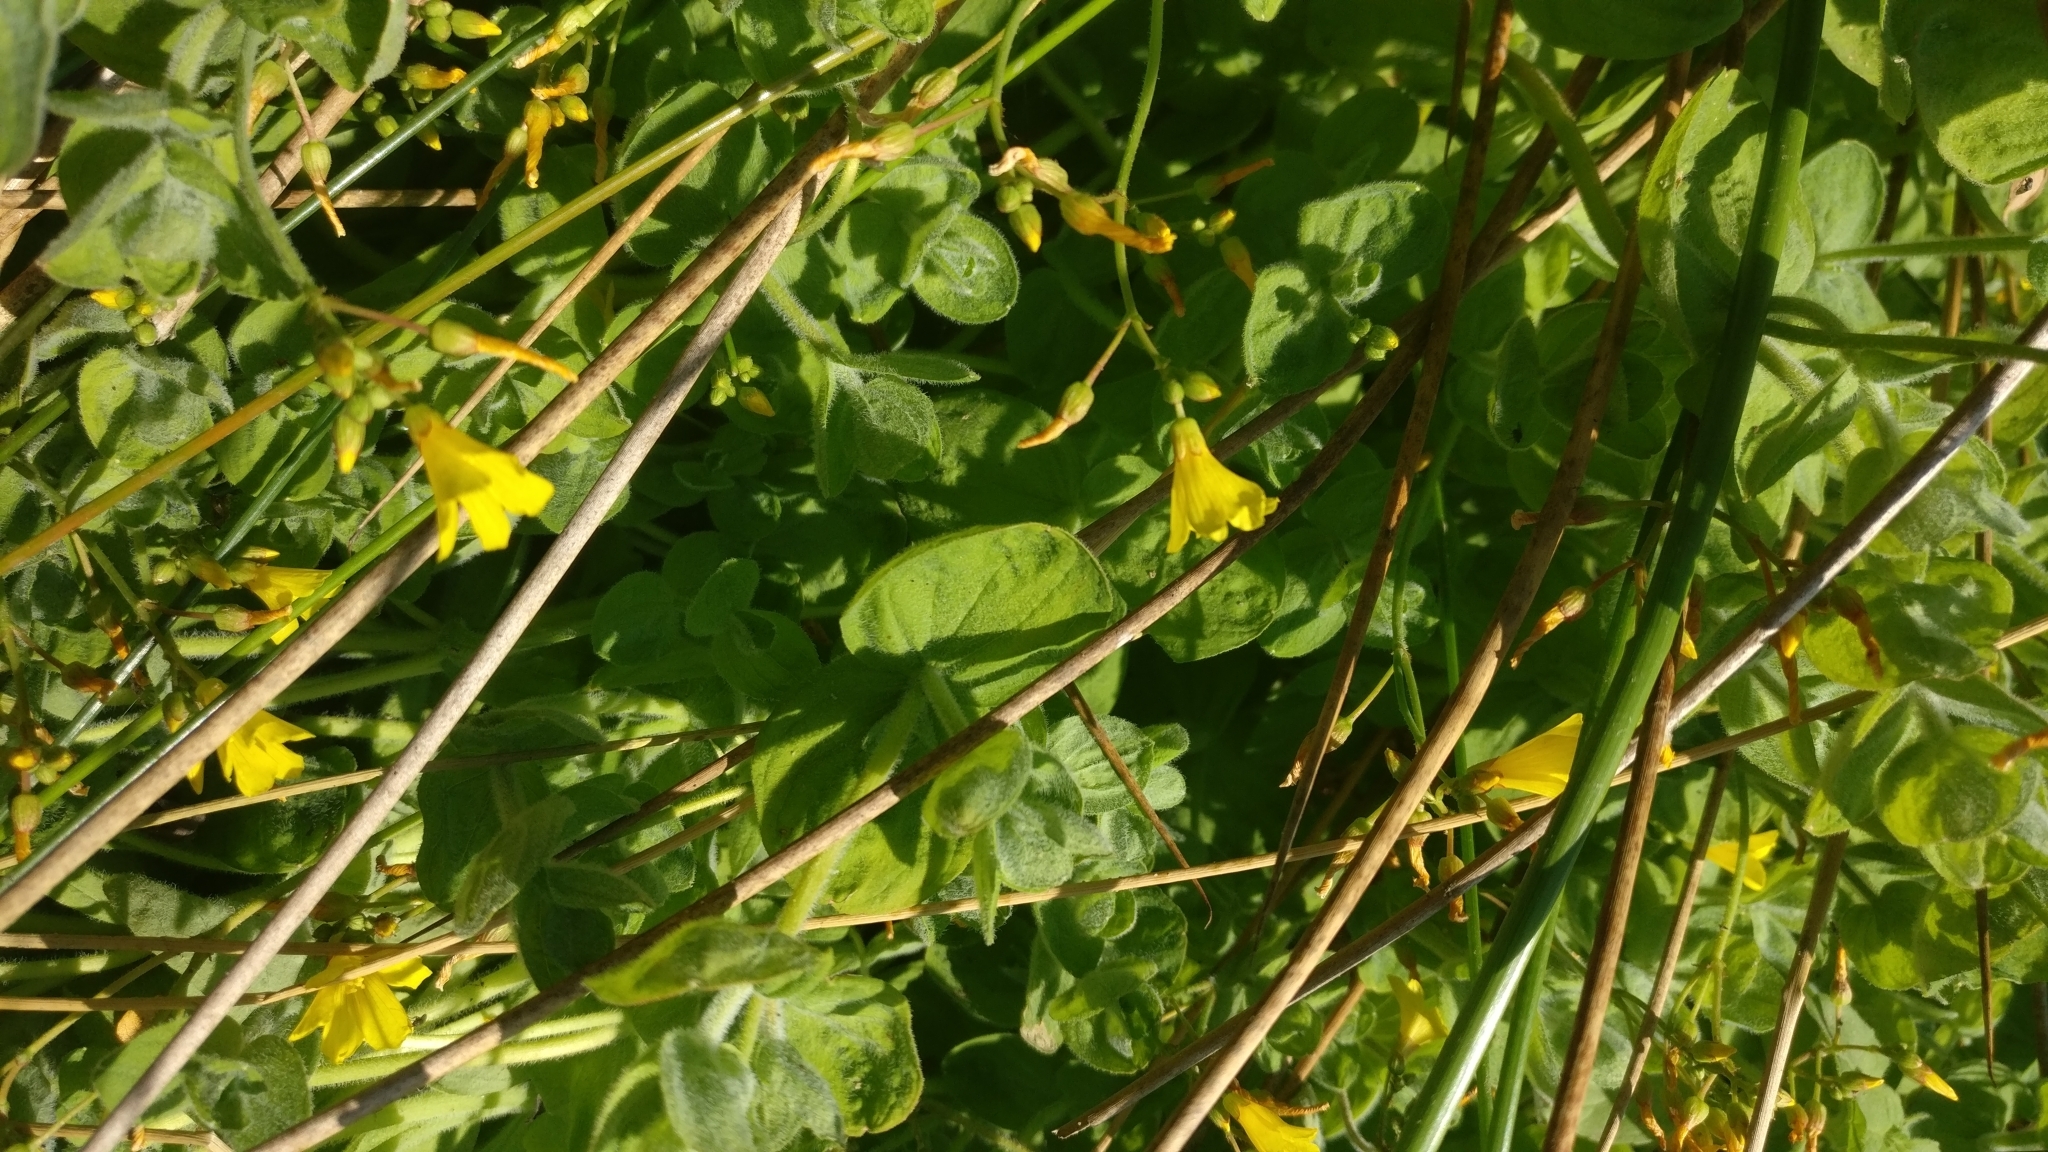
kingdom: Plantae
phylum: Tracheophyta
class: Magnoliopsida
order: Malpighiales
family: Hypericaceae
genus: Hypericum
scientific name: Hypericum elodes
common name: Marsh st. john's-wort
